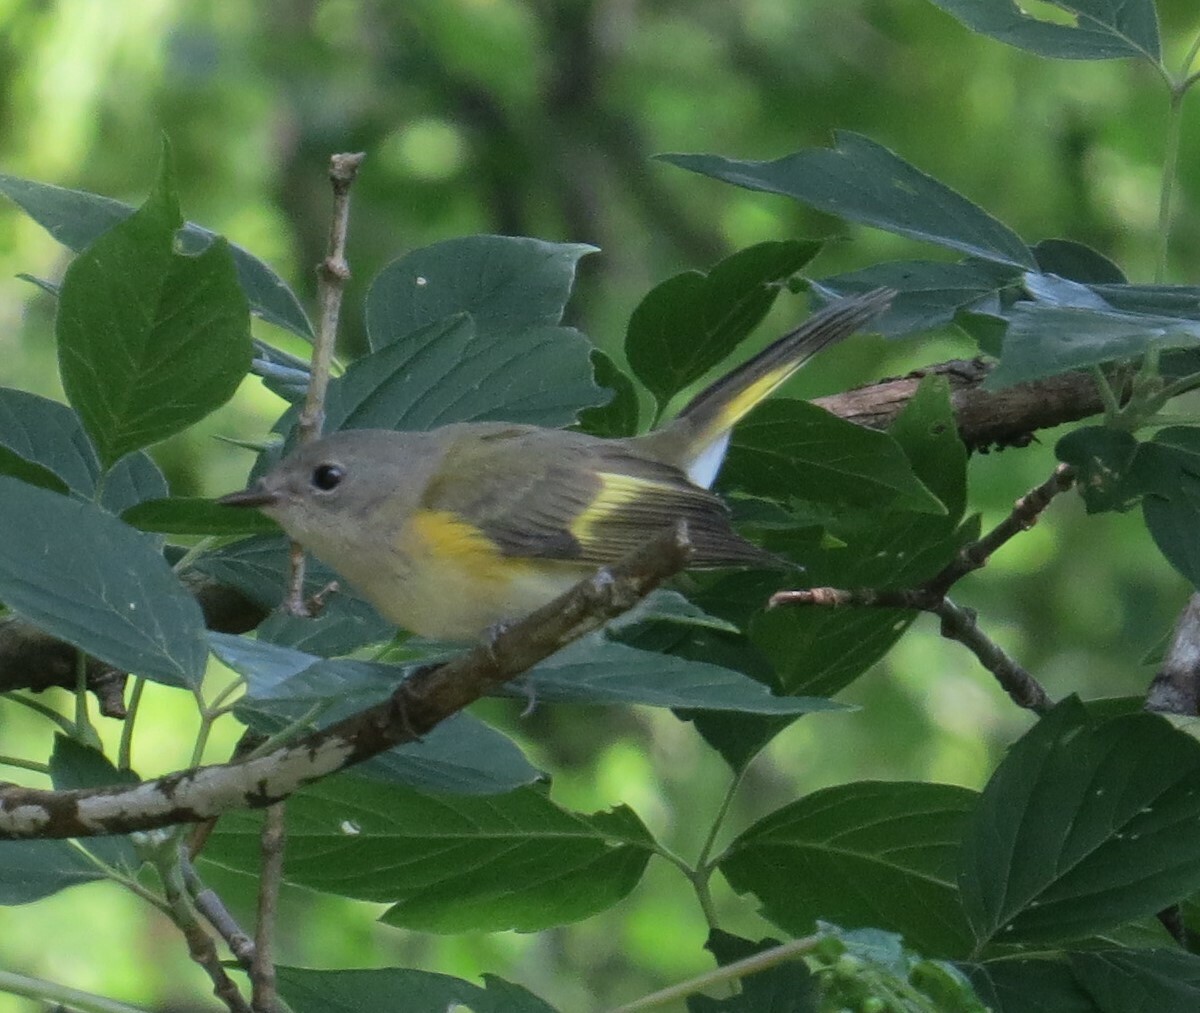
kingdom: Animalia
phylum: Chordata
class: Aves
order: Passeriformes
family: Parulidae
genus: Setophaga
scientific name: Setophaga ruticilla
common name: American redstart
